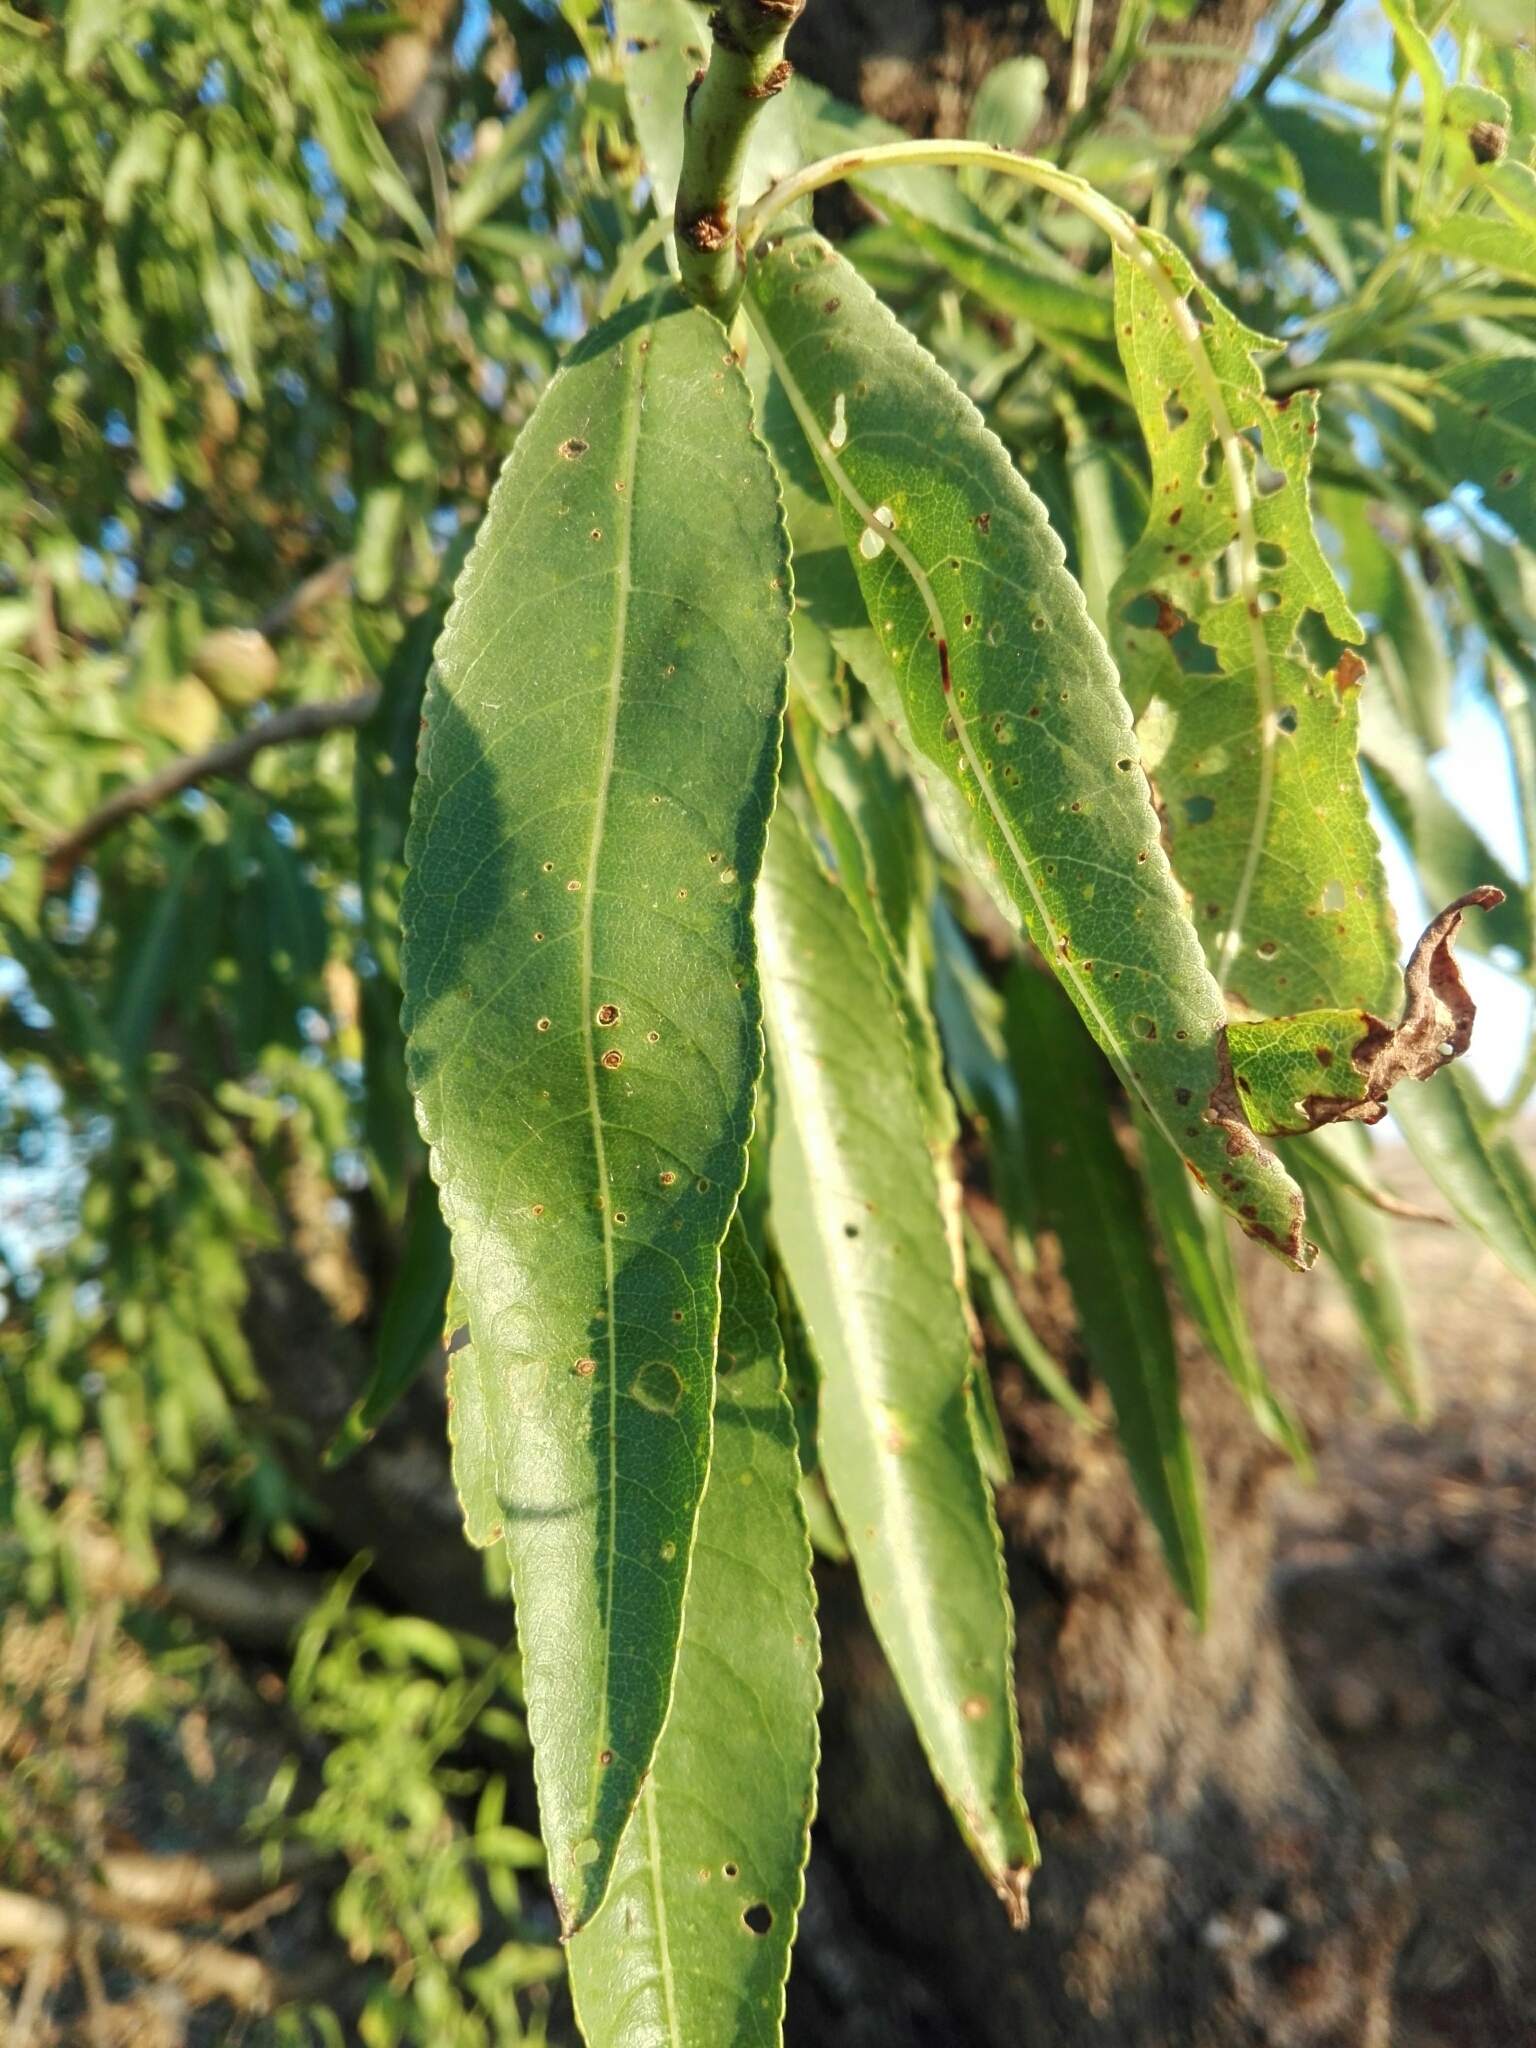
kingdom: Plantae
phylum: Tracheophyta
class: Magnoliopsida
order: Rosales
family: Rosaceae
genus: Prunus
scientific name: Prunus amygdalus
